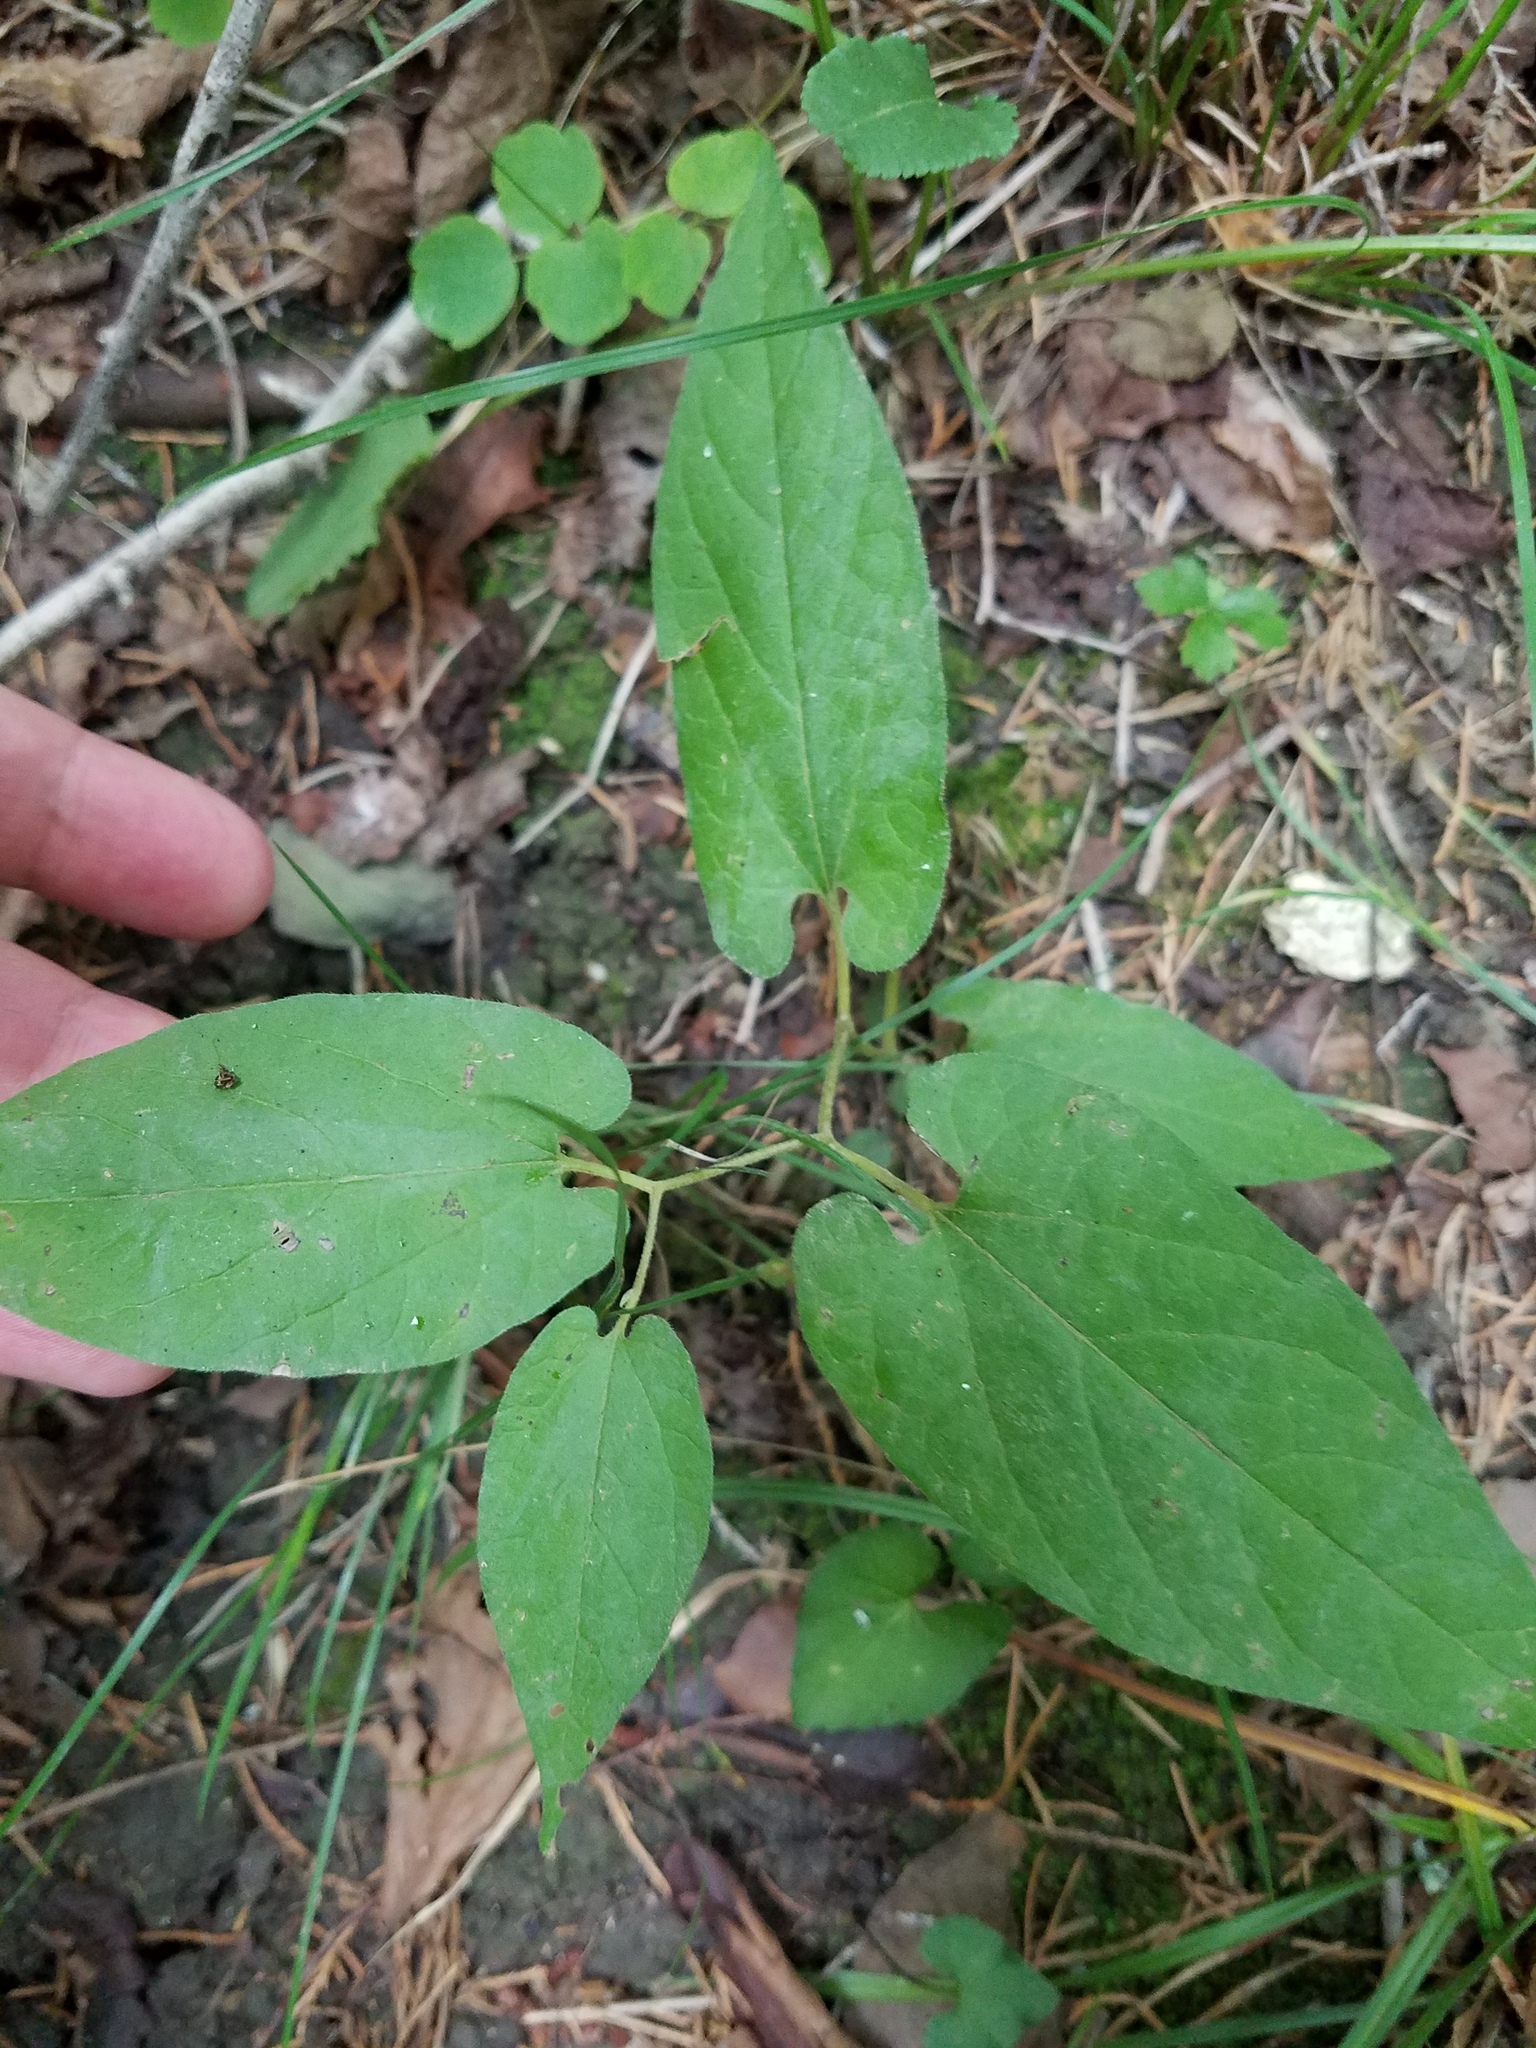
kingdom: Plantae
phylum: Tracheophyta
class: Magnoliopsida
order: Piperales
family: Aristolochiaceae
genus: Endodeca
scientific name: Endodeca serpentaria
